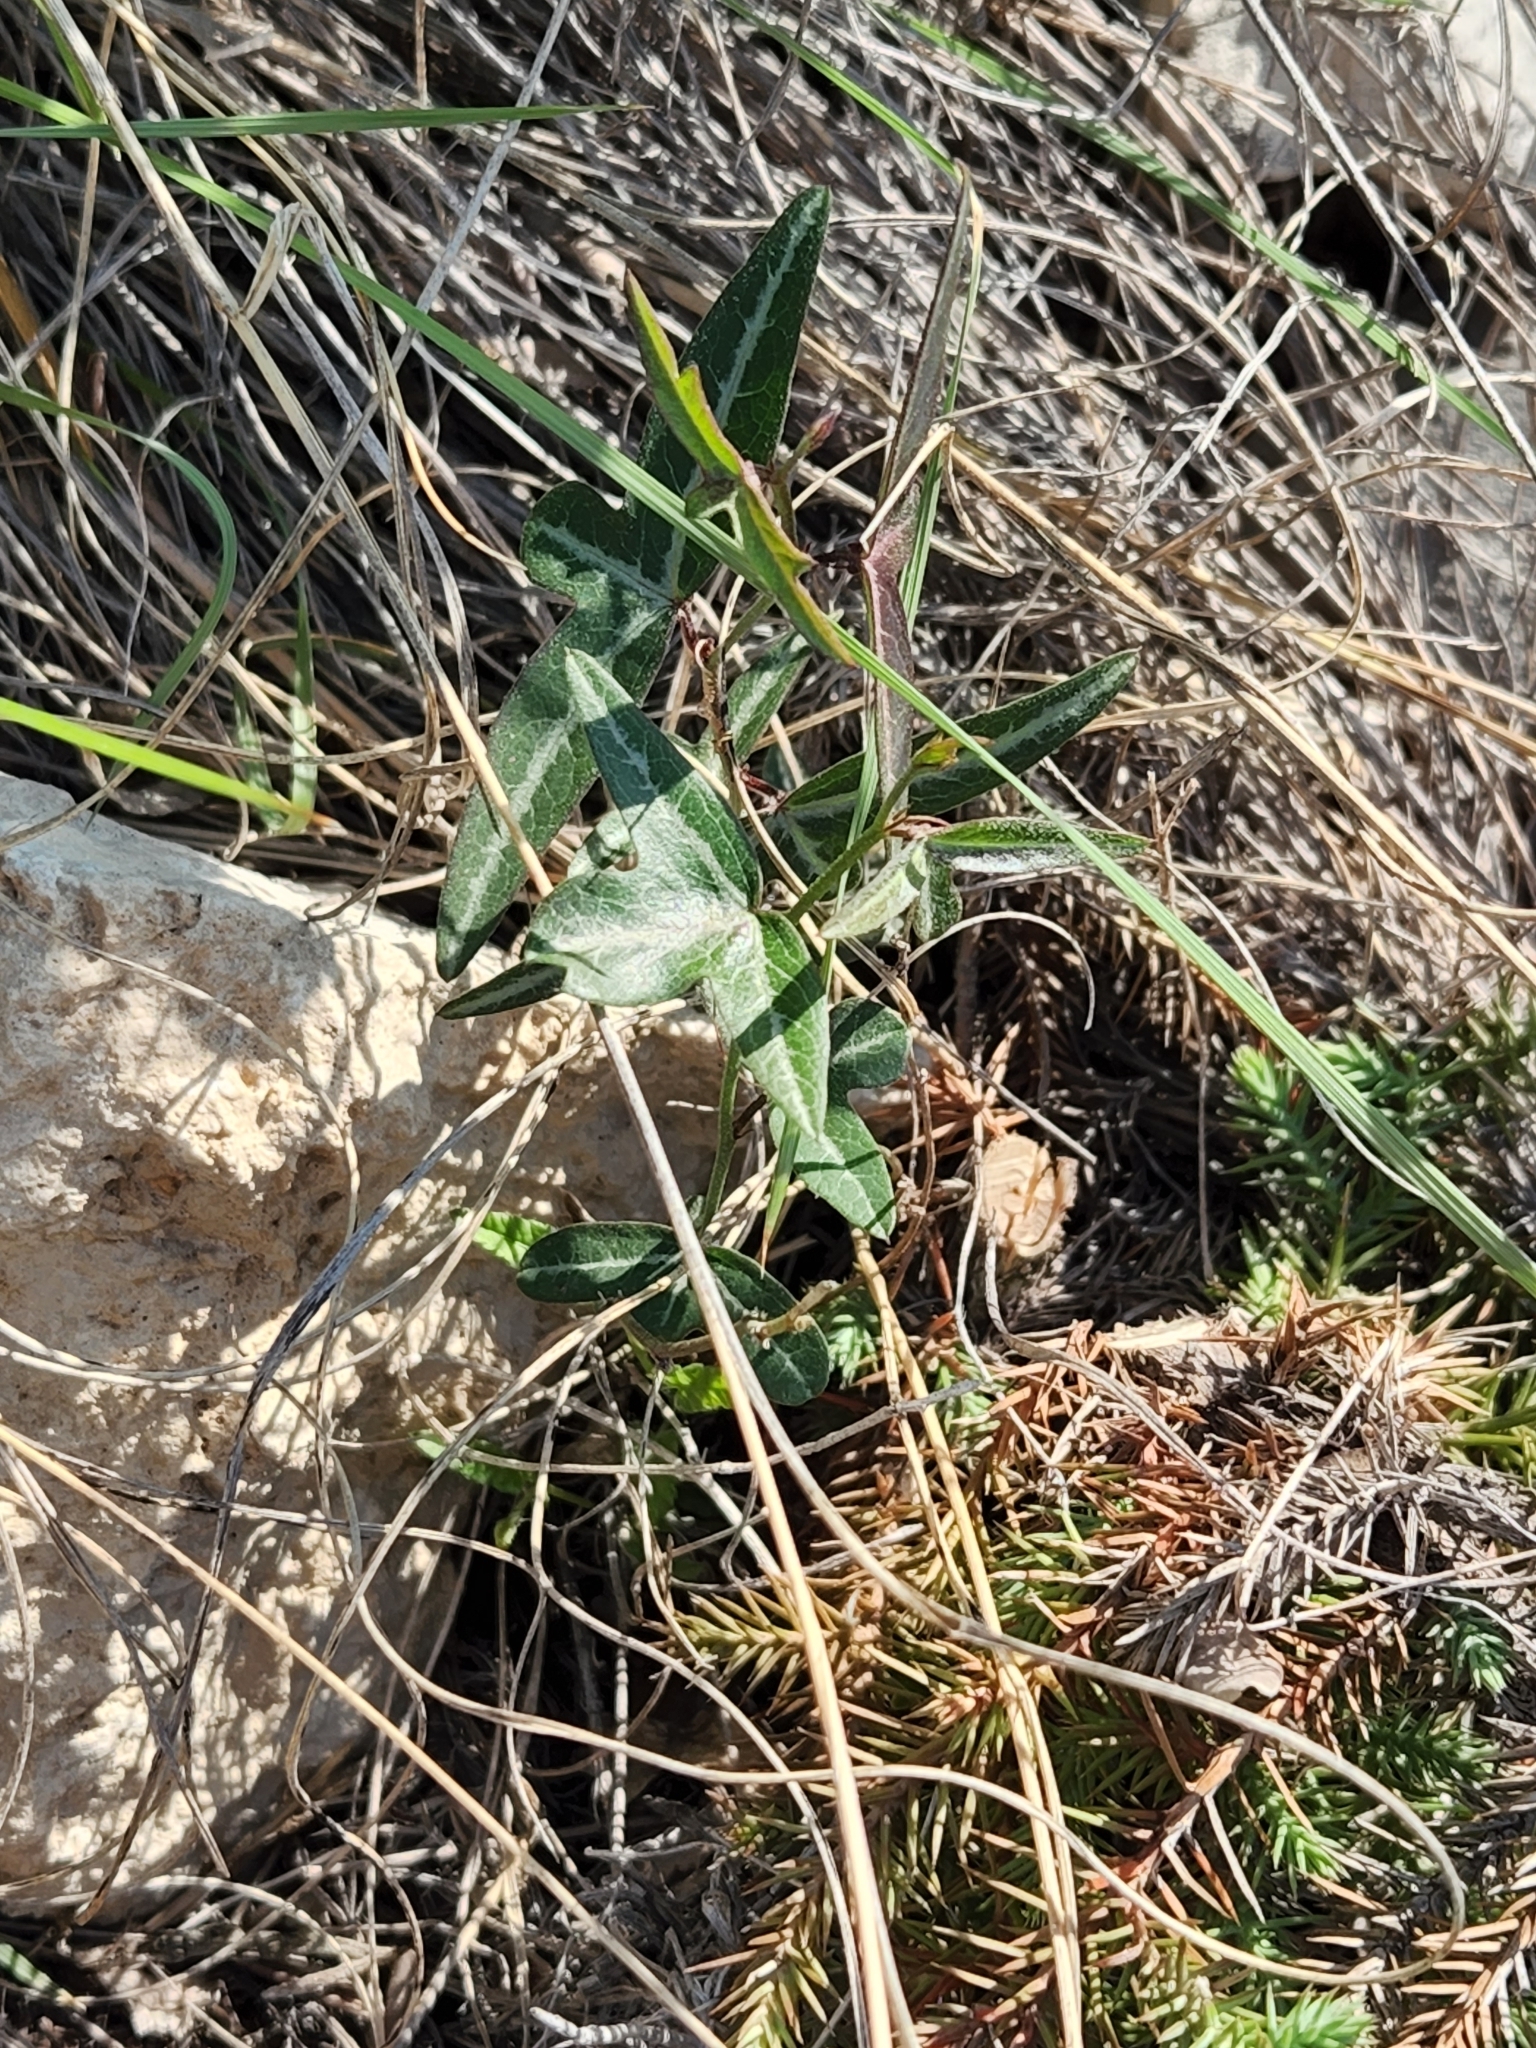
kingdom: Plantae
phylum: Tracheophyta
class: Magnoliopsida
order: Malpighiales
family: Passifloraceae
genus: Passiflora
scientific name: Passiflora tenuiloba
